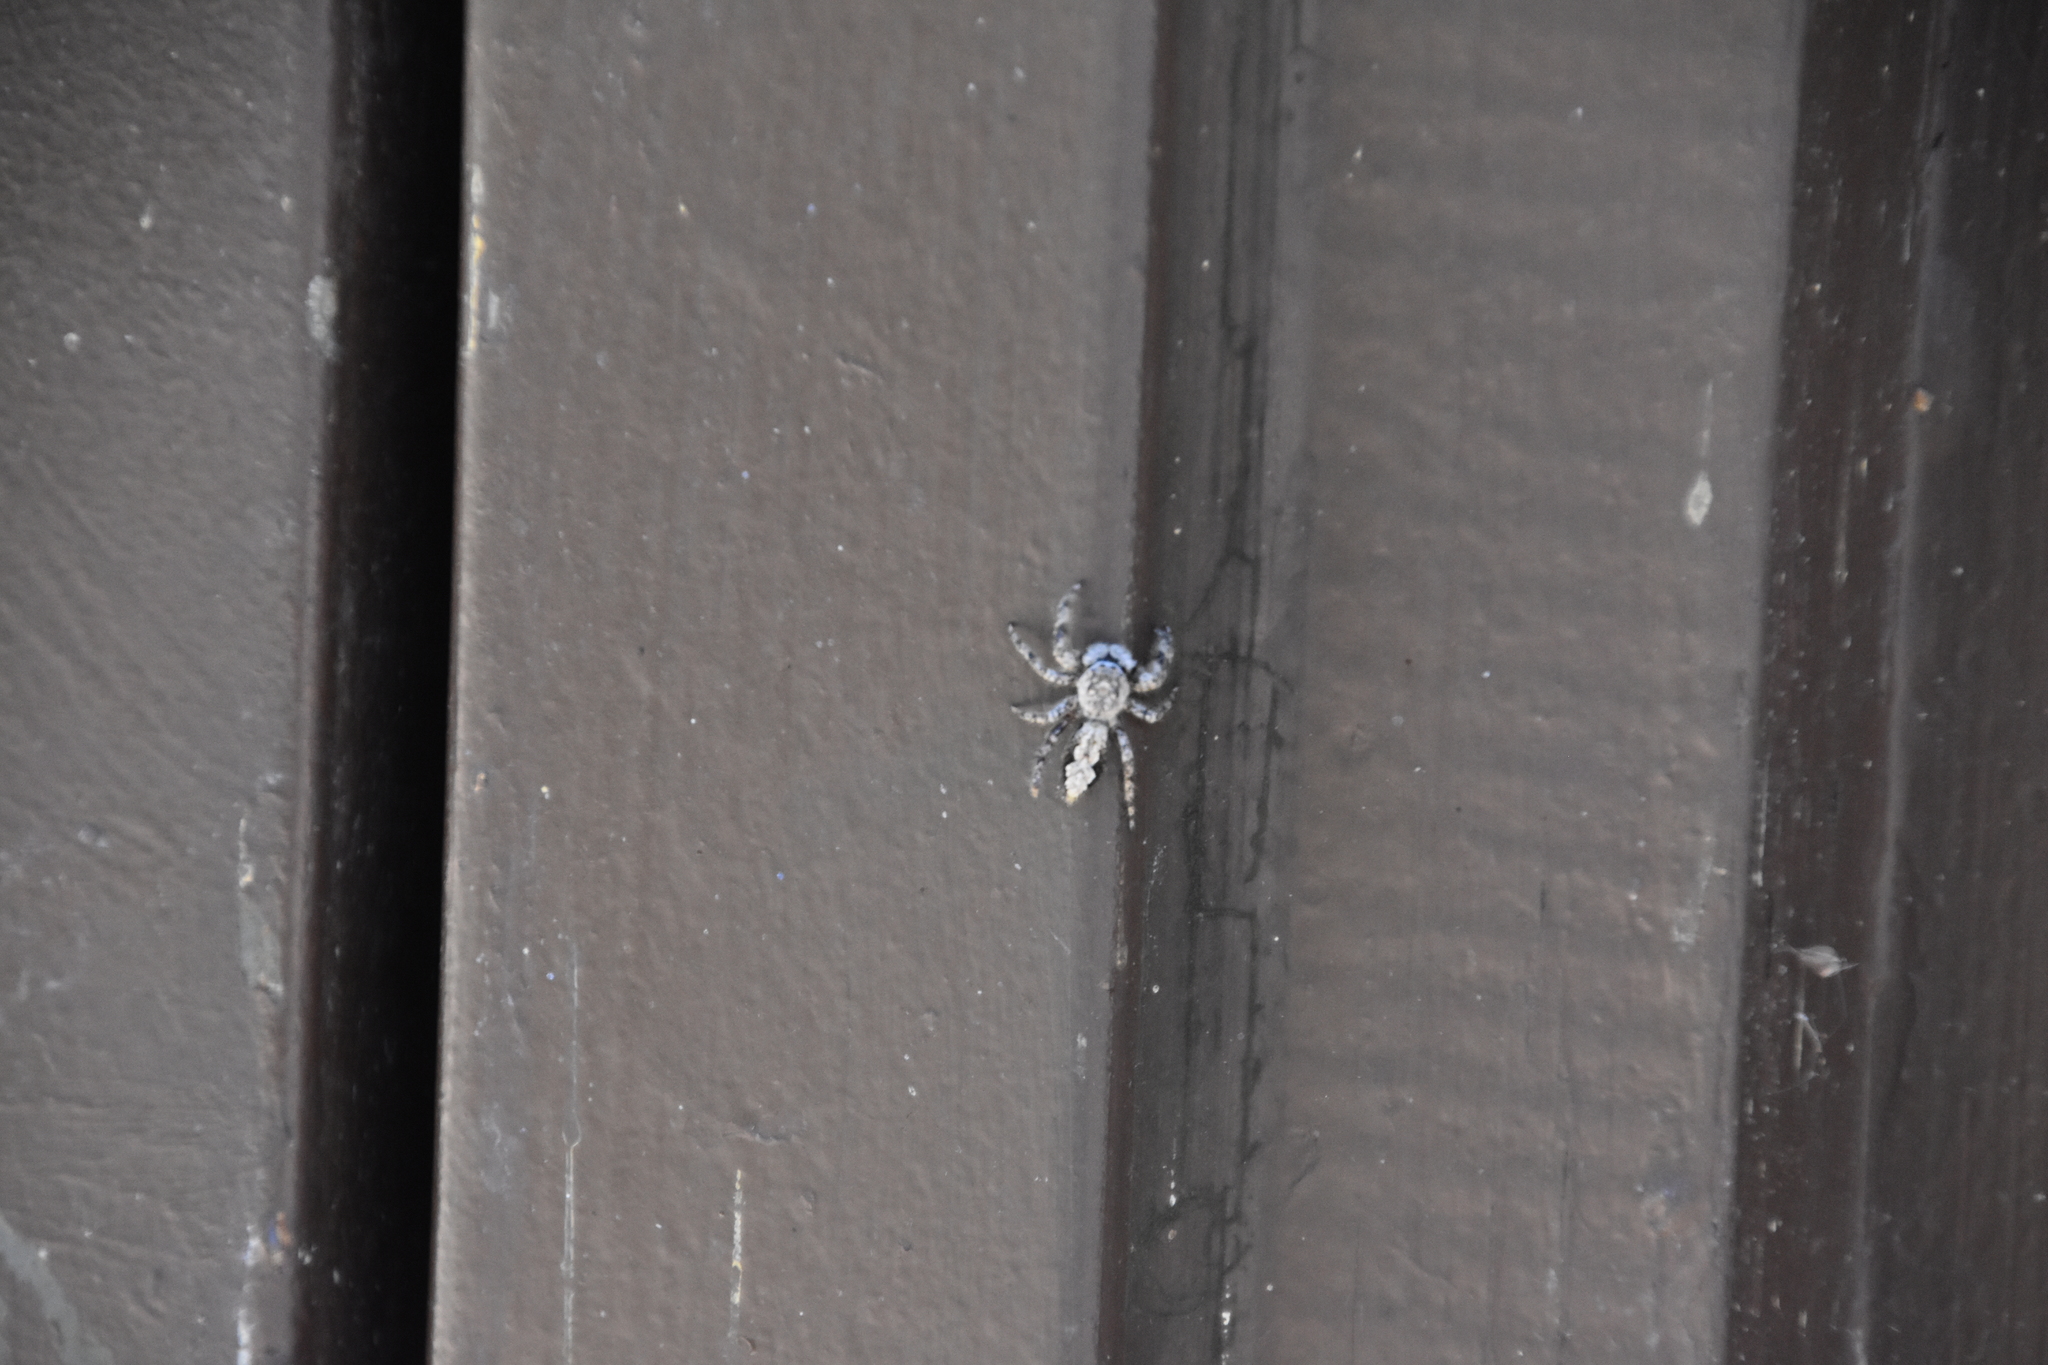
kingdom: Animalia
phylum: Arthropoda
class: Arachnida
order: Araneae
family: Salticidae
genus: Platycryptus
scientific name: Platycryptus undatus
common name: Tan jumping spider
